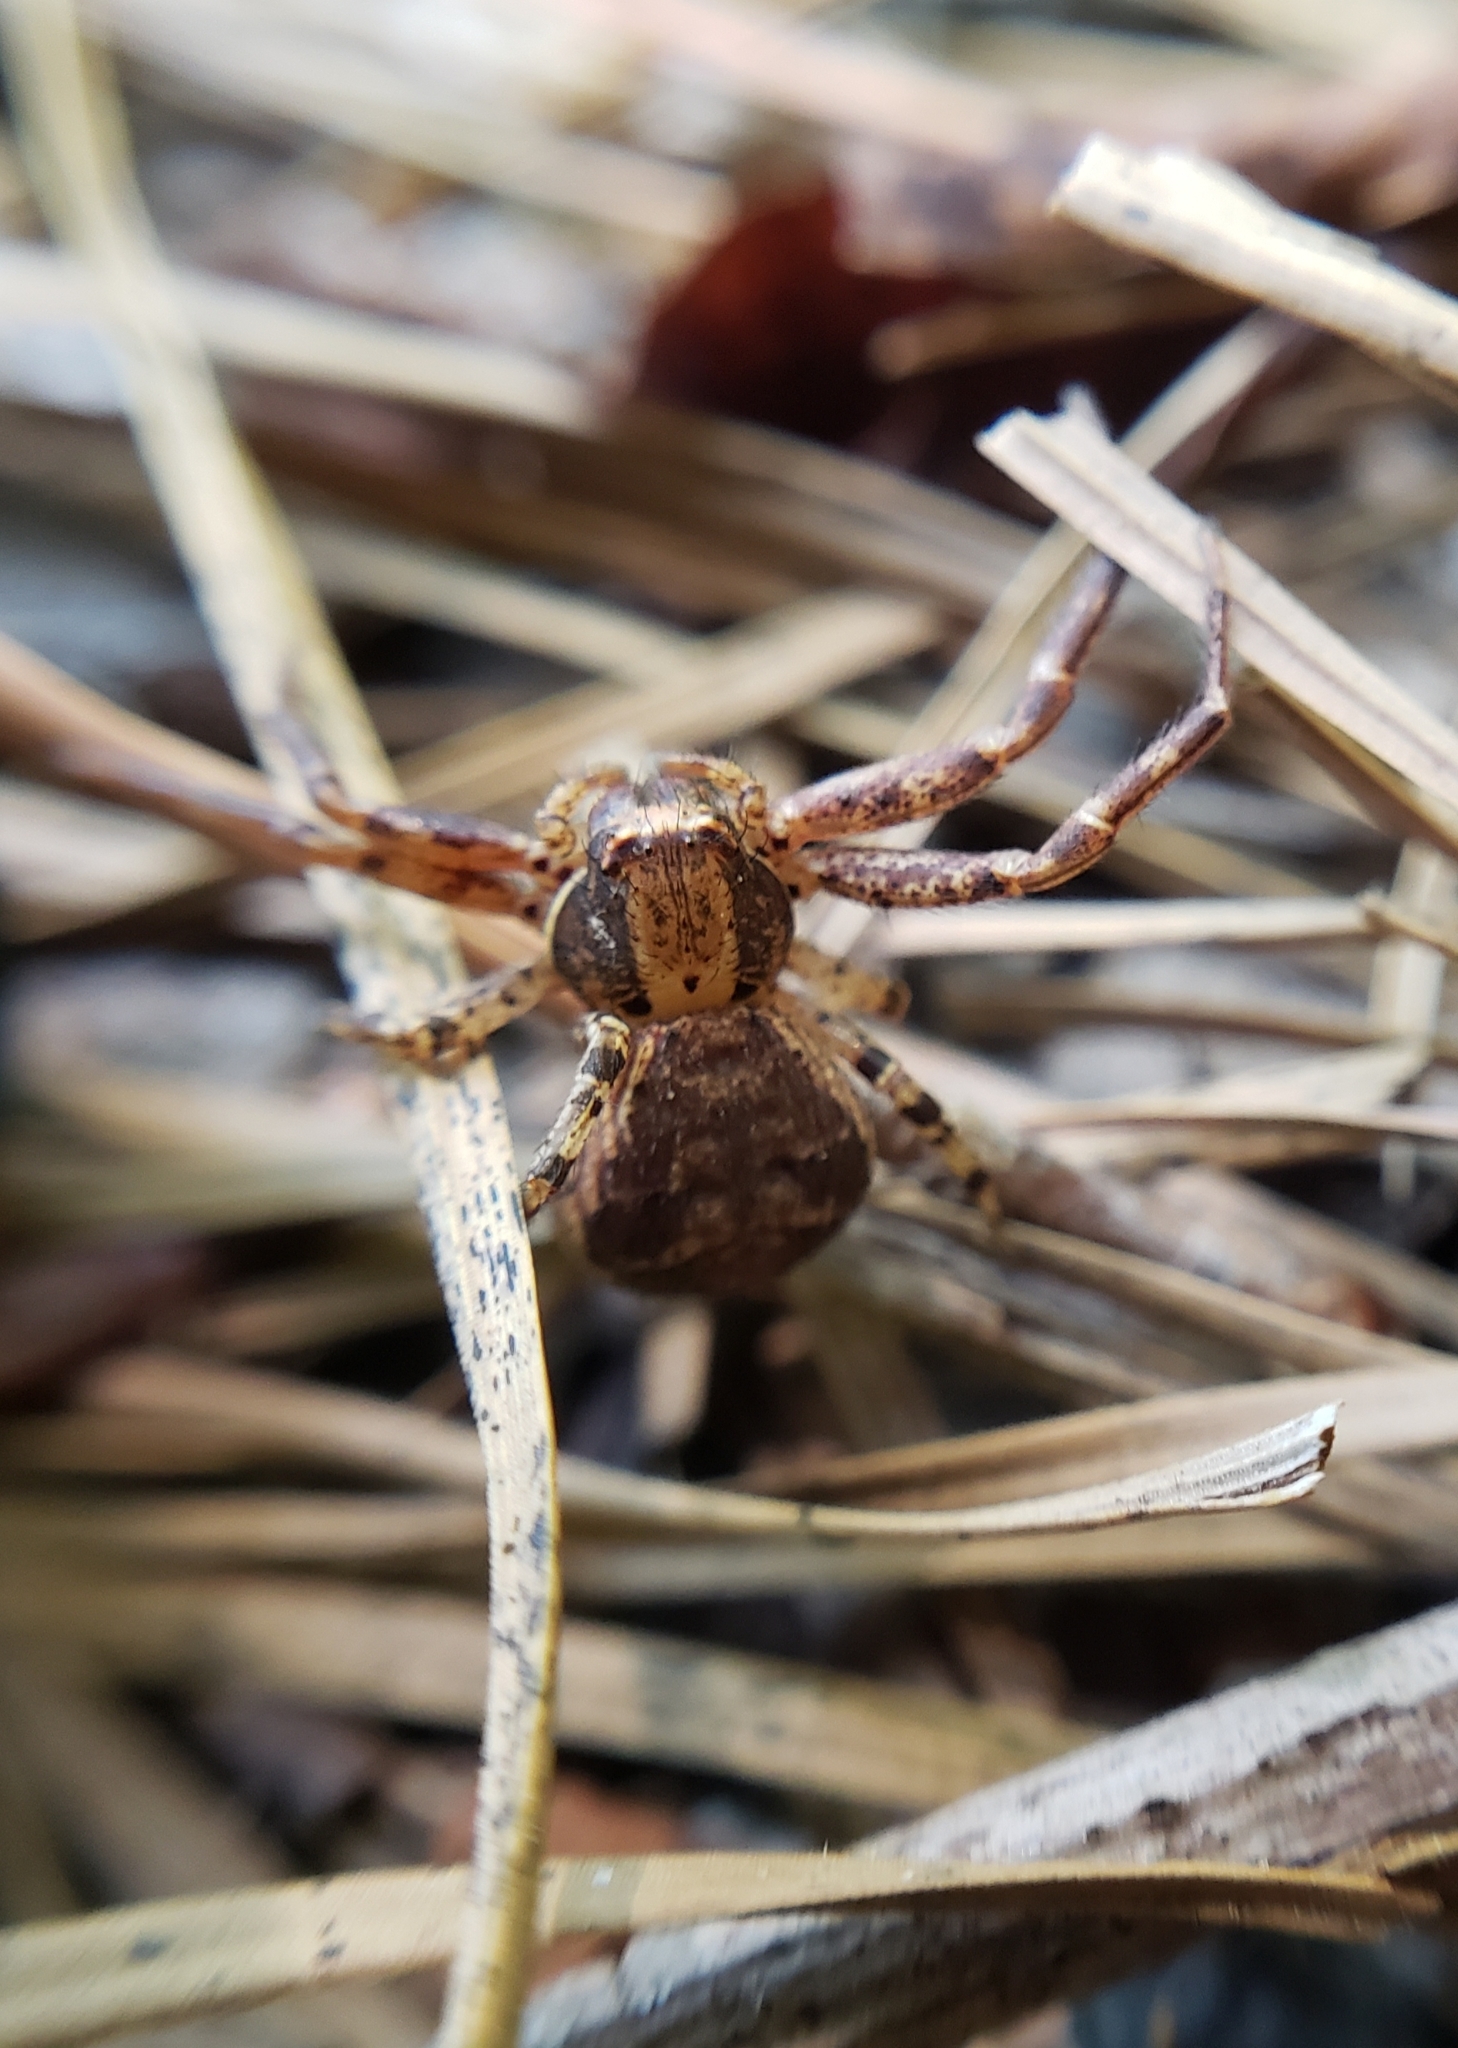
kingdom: Animalia
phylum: Arthropoda
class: Arachnida
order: Araneae
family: Thomisidae
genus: Xysticus
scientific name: Xysticus
